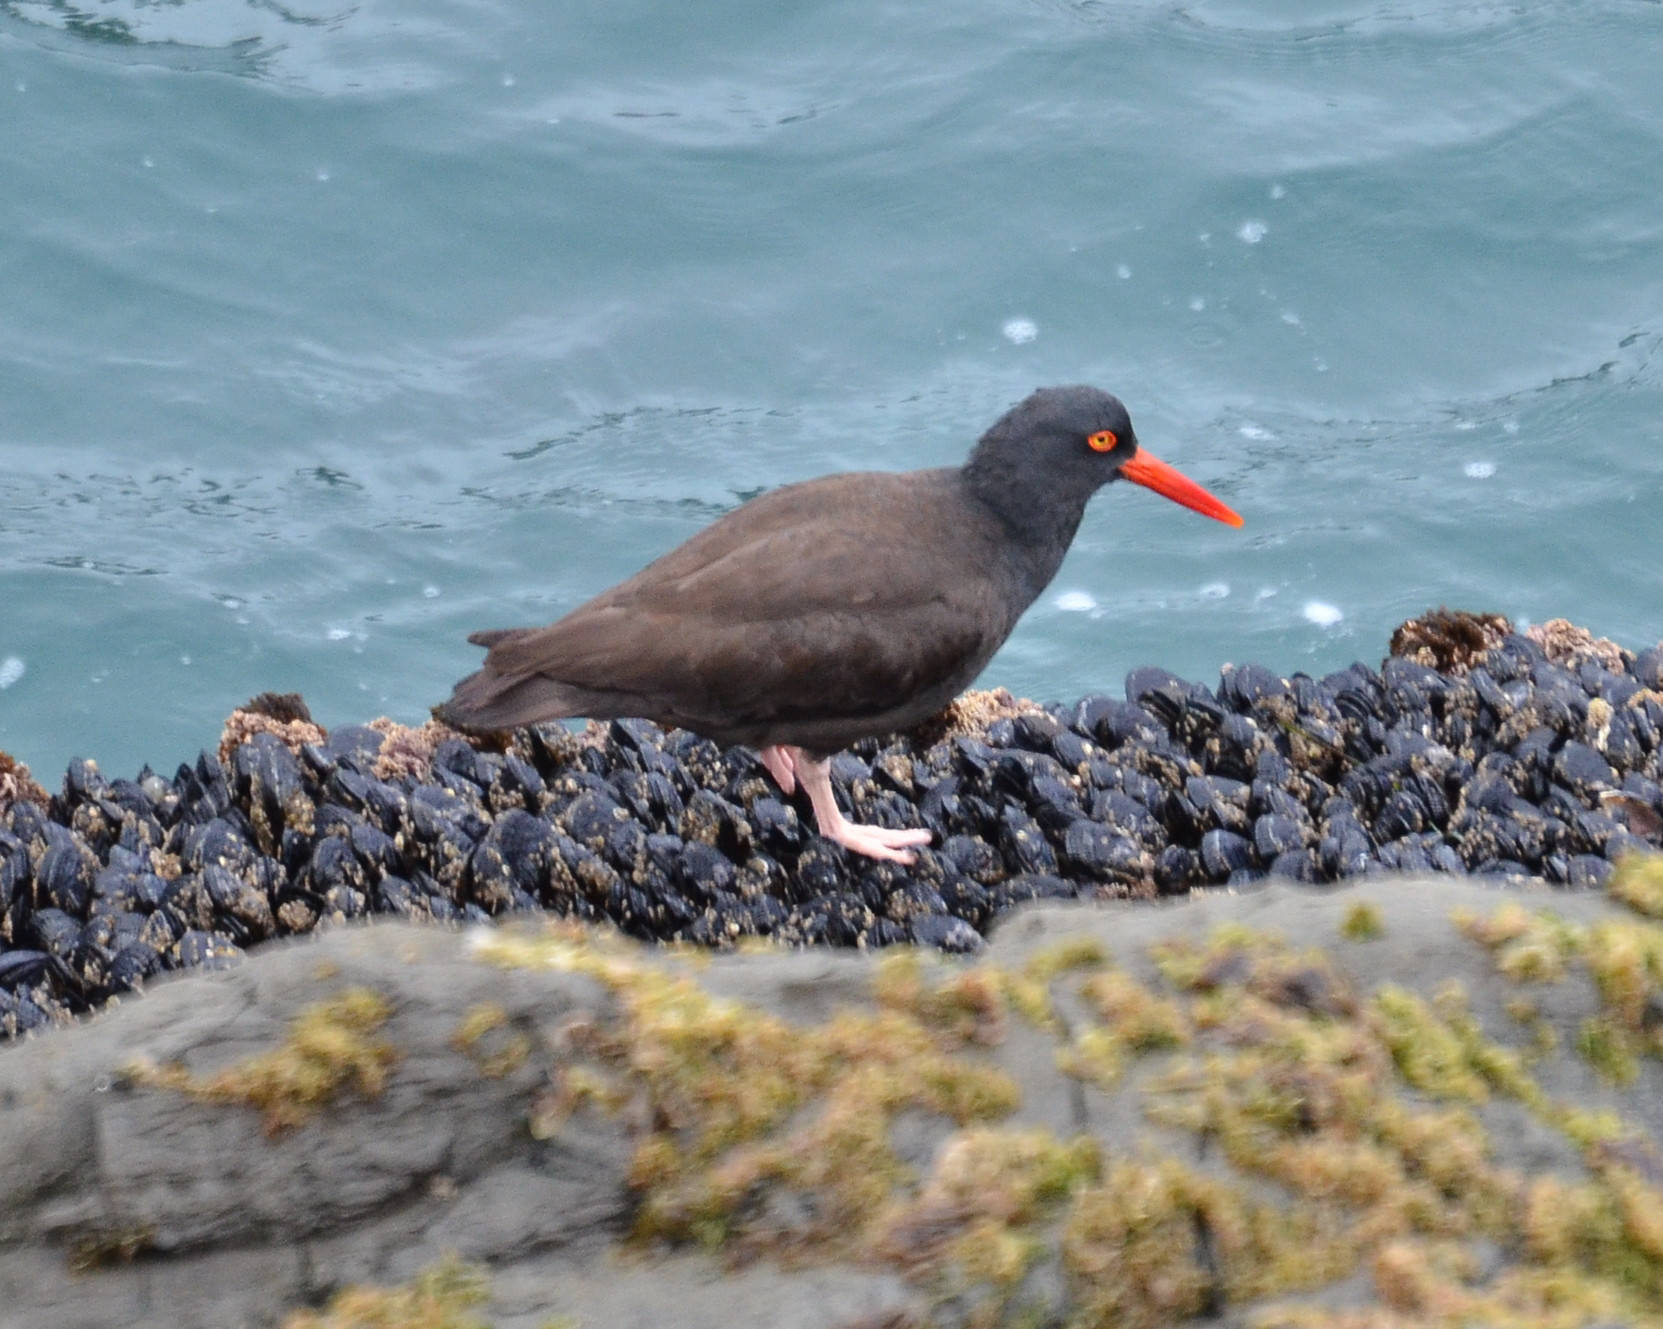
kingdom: Animalia
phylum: Chordata
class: Aves
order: Charadriiformes
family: Haematopodidae
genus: Haematopus
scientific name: Haematopus bachmani
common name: Black oystercatcher
